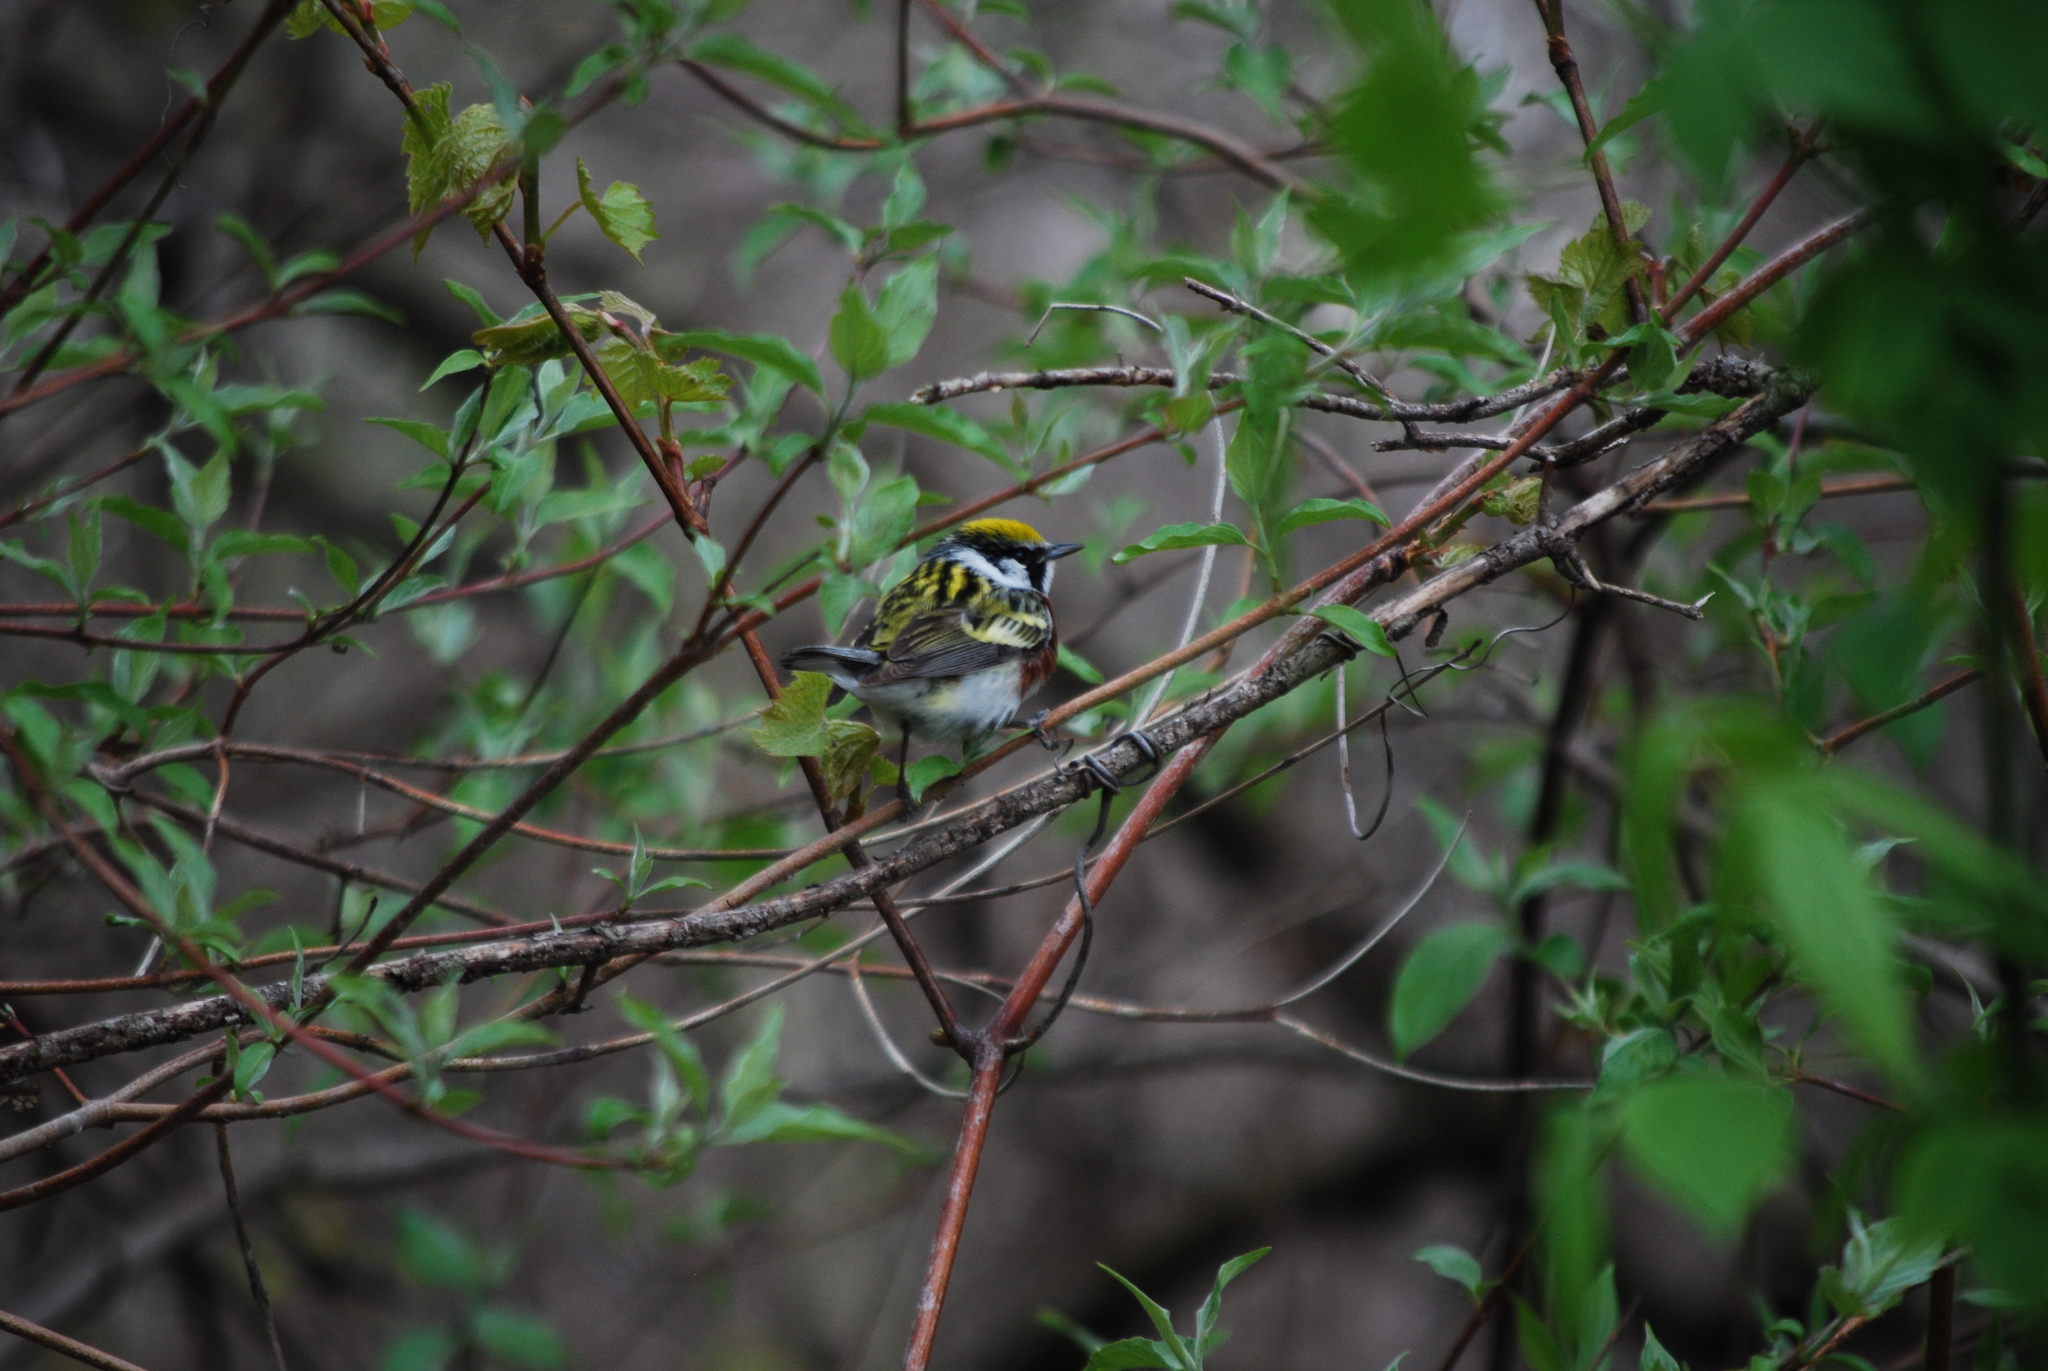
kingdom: Animalia
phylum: Chordata
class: Aves
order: Passeriformes
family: Parulidae
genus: Setophaga
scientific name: Setophaga pensylvanica
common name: Chestnut-sided warbler
